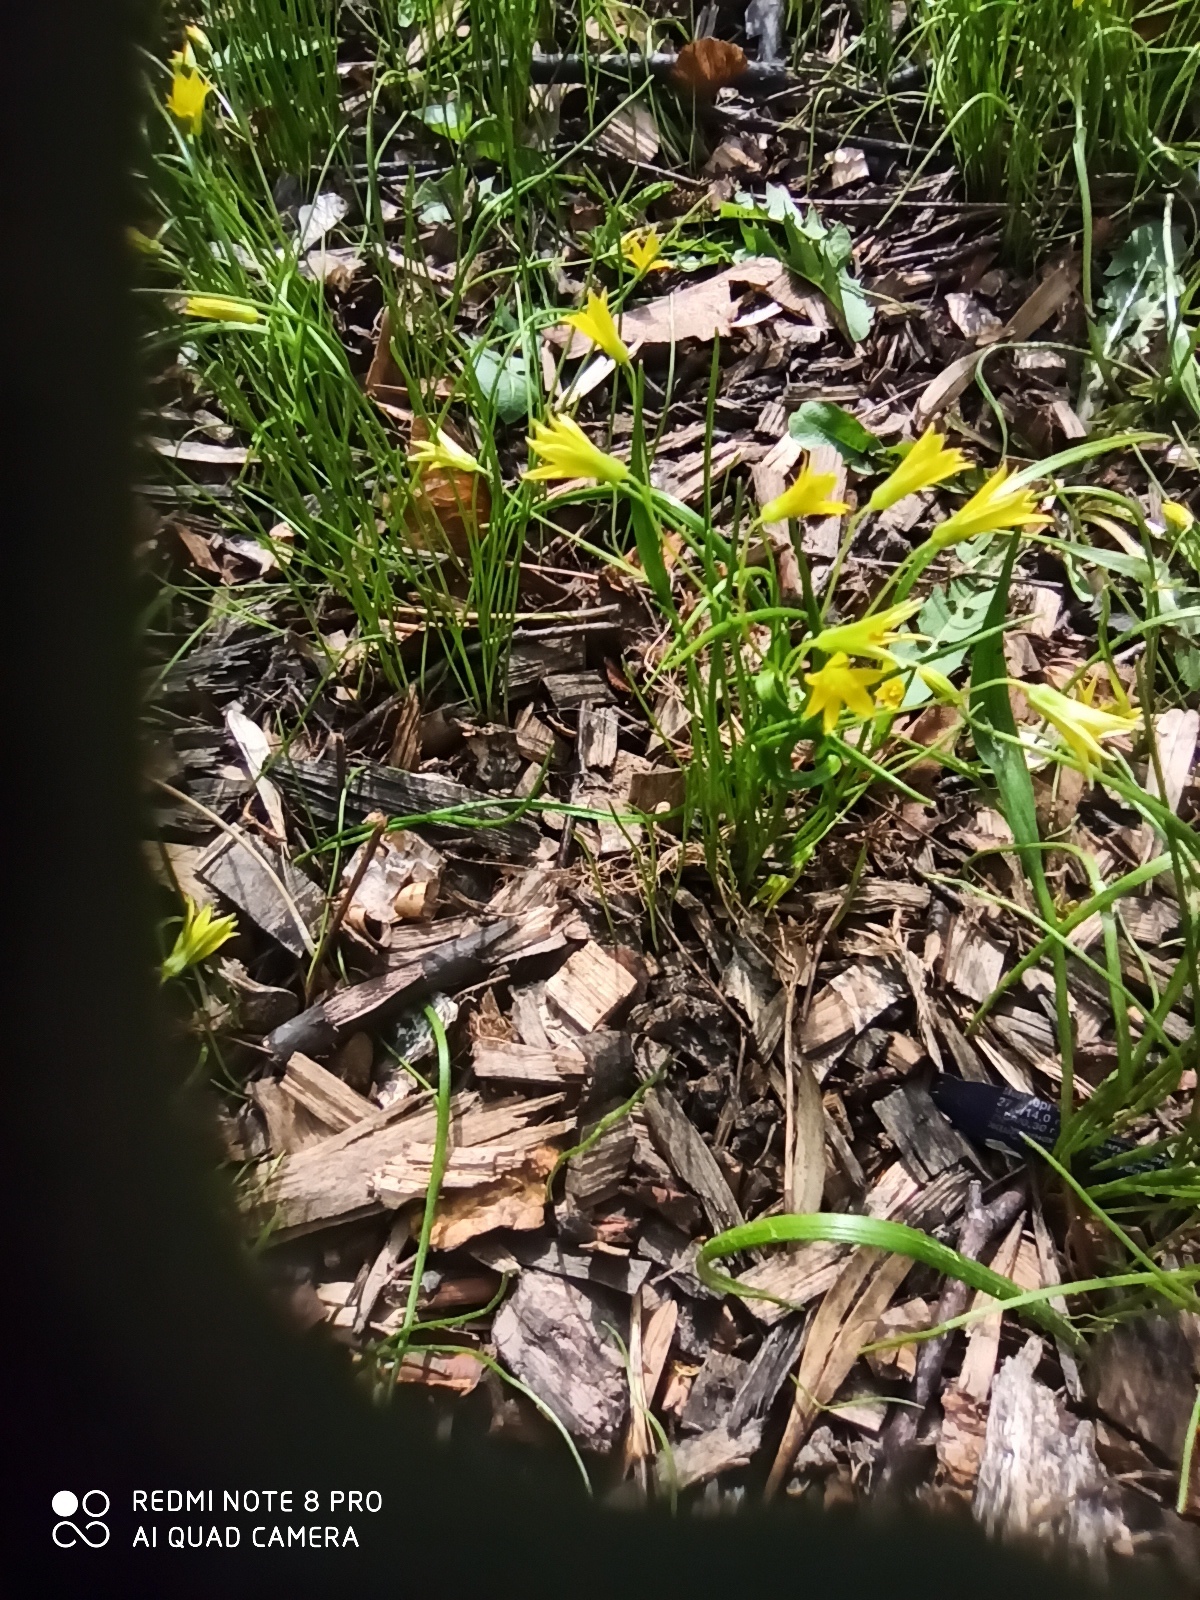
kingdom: Plantae
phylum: Tracheophyta
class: Liliopsida
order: Liliales
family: Liliaceae
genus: Gagea
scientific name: Gagea minima
